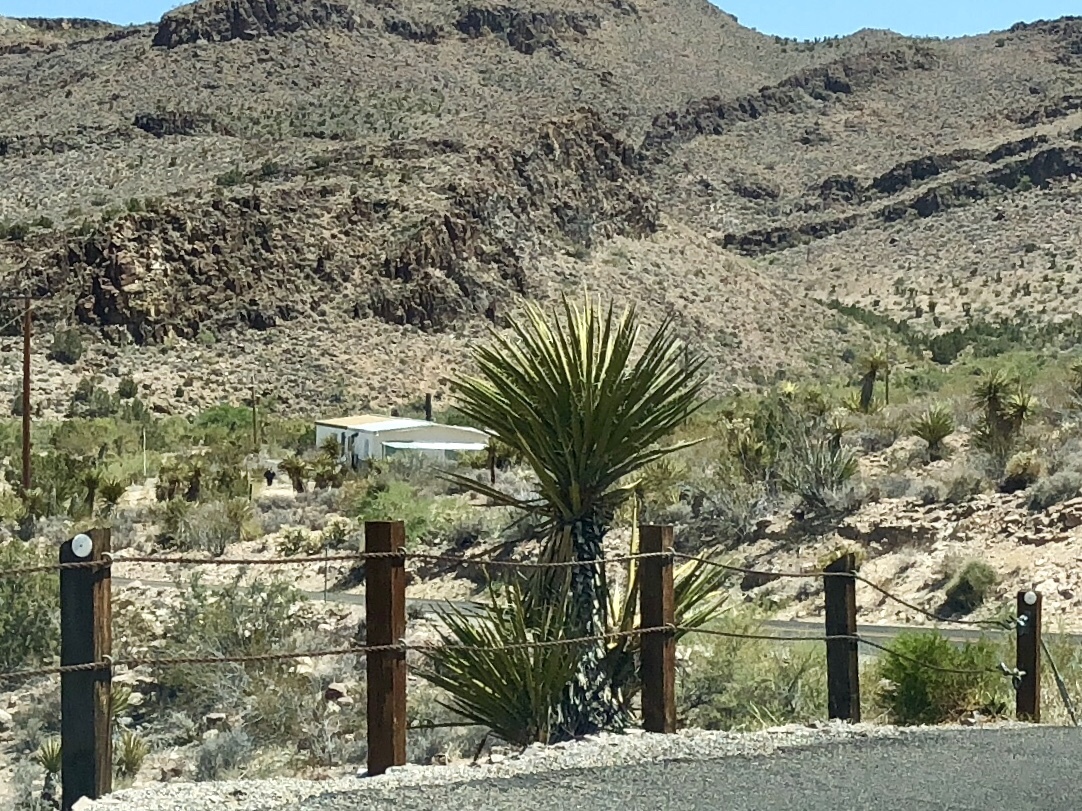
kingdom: Plantae
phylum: Tracheophyta
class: Liliopsida
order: Asparagales
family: Asparagaceae
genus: Yucca
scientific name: Yucca schidigera
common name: Mojave yucca
